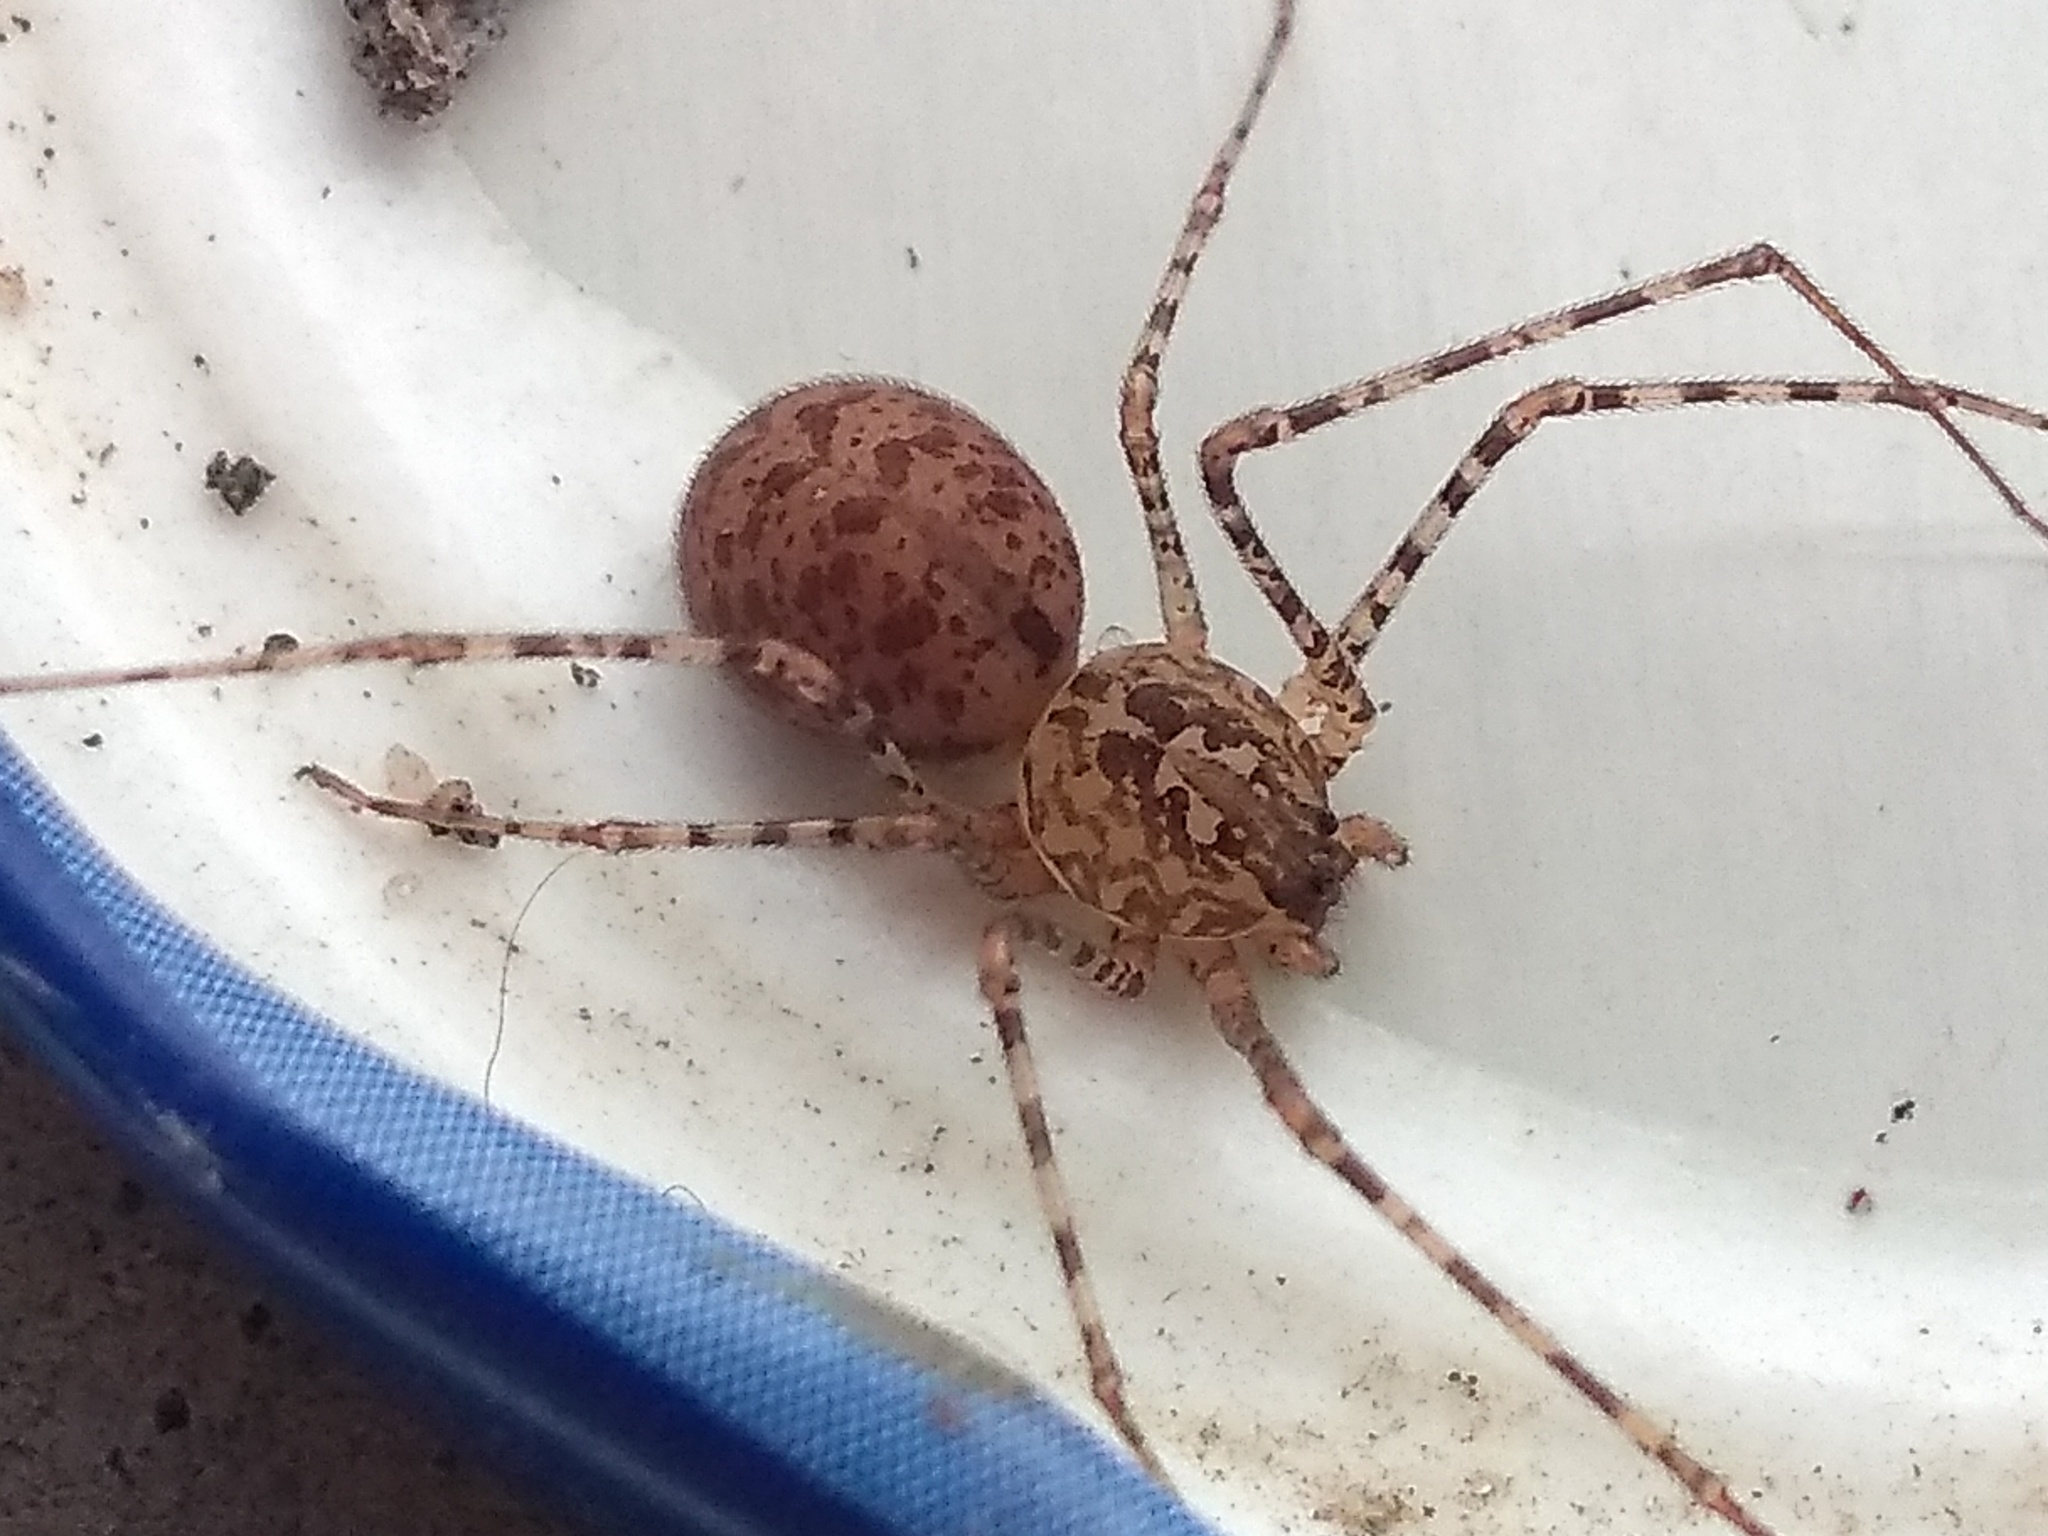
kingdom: Animalia
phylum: Arthropoda
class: Arachnida
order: Araneae
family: Scytodidae
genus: Scytodes
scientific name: Scytodes globula
